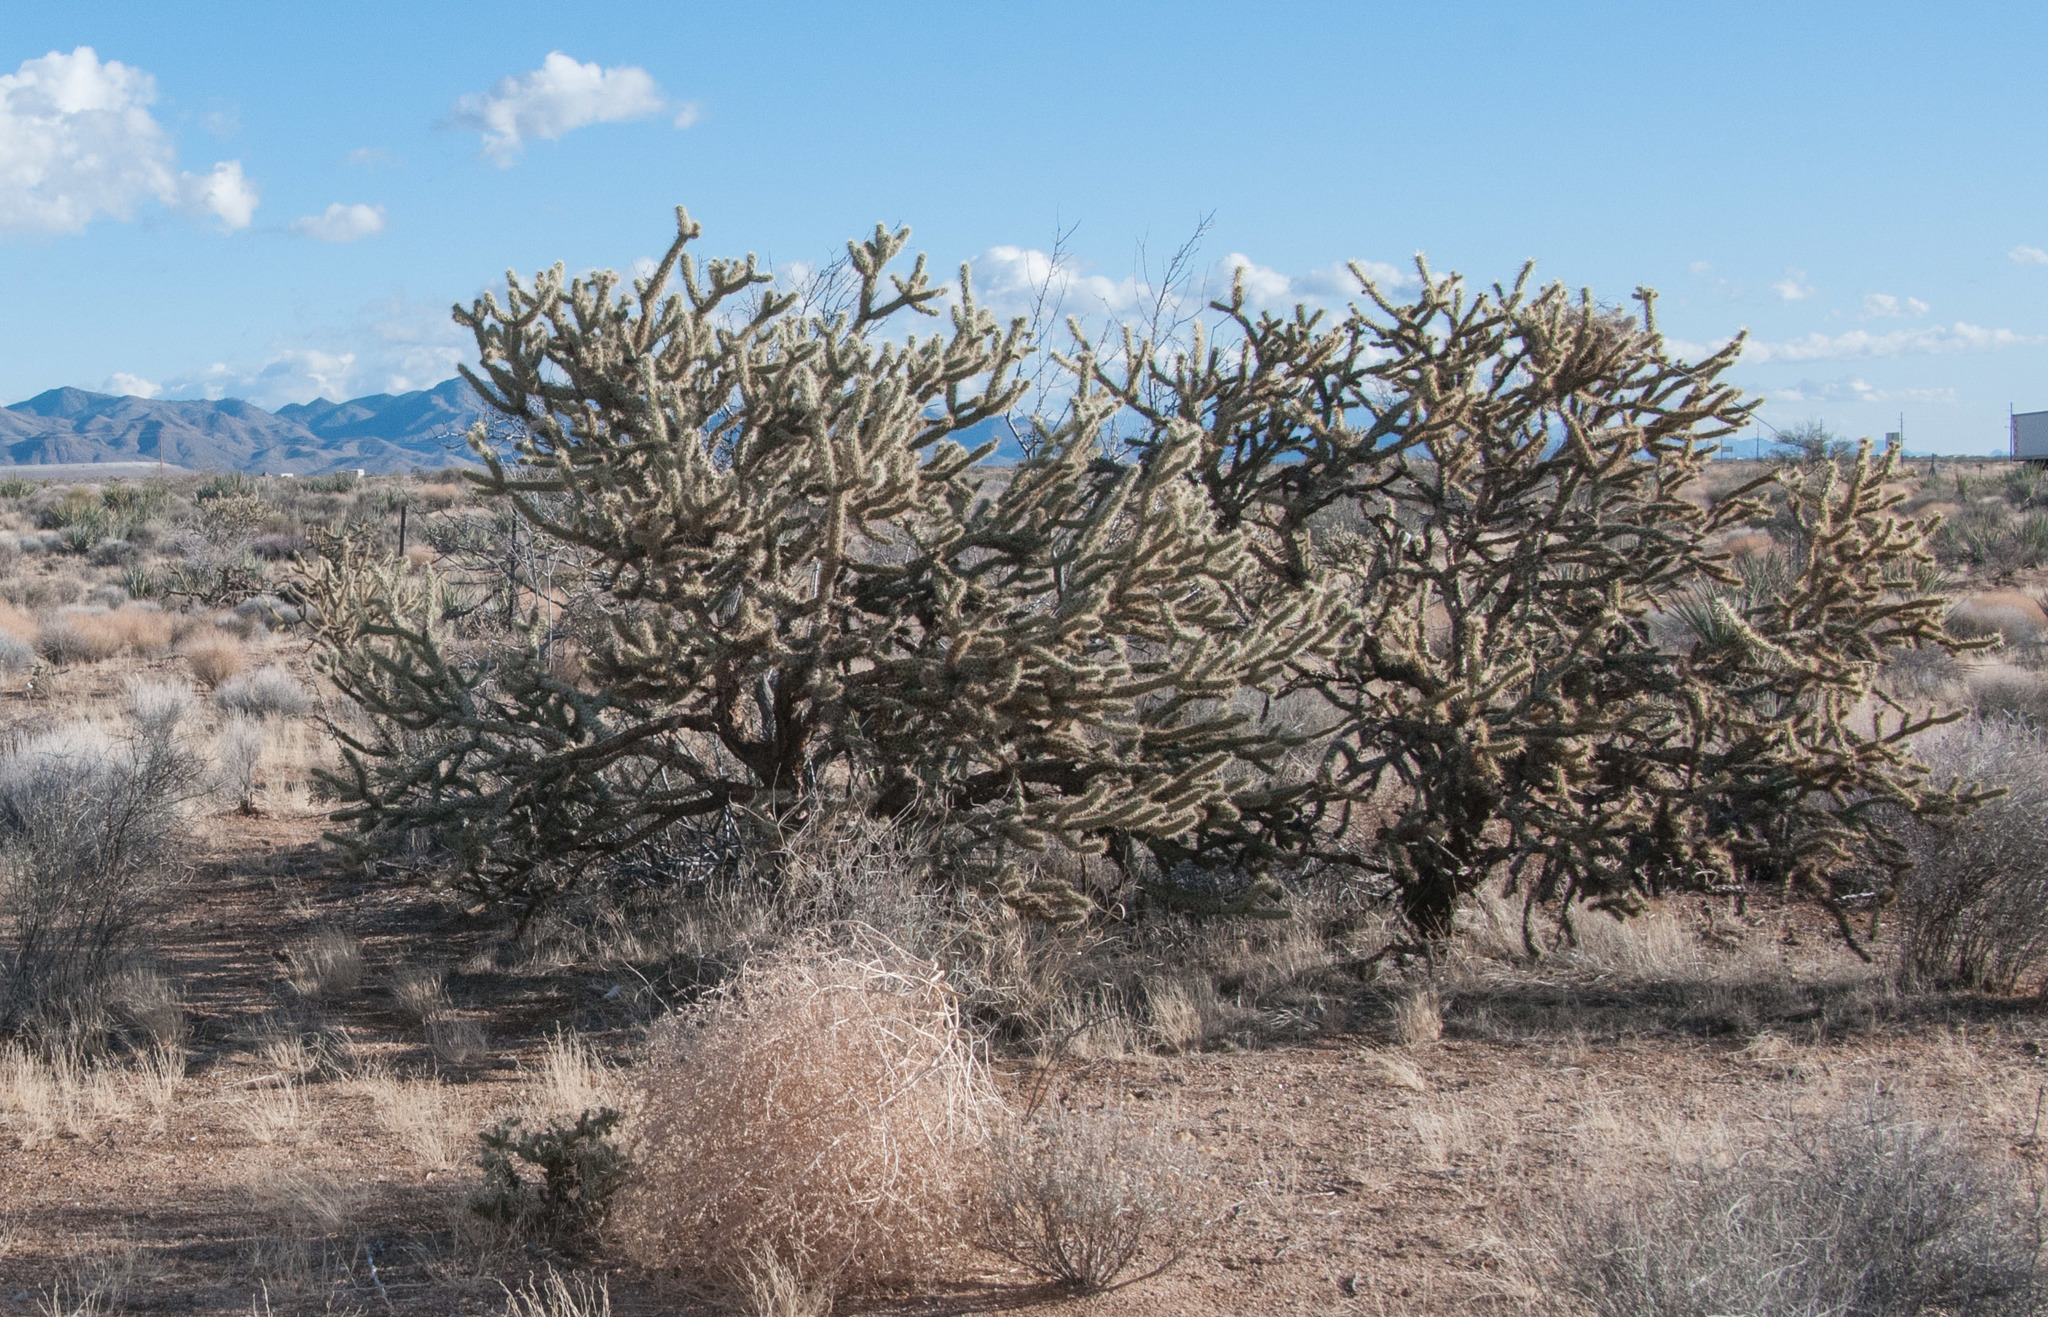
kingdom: Plantae
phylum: Tracheophyta
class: Magnoliopsida
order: Caryophyllales
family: Cactaceae
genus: Cylindropuntia
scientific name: Cylindropuntia acanthocarpa
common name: Buckhorn cholla
